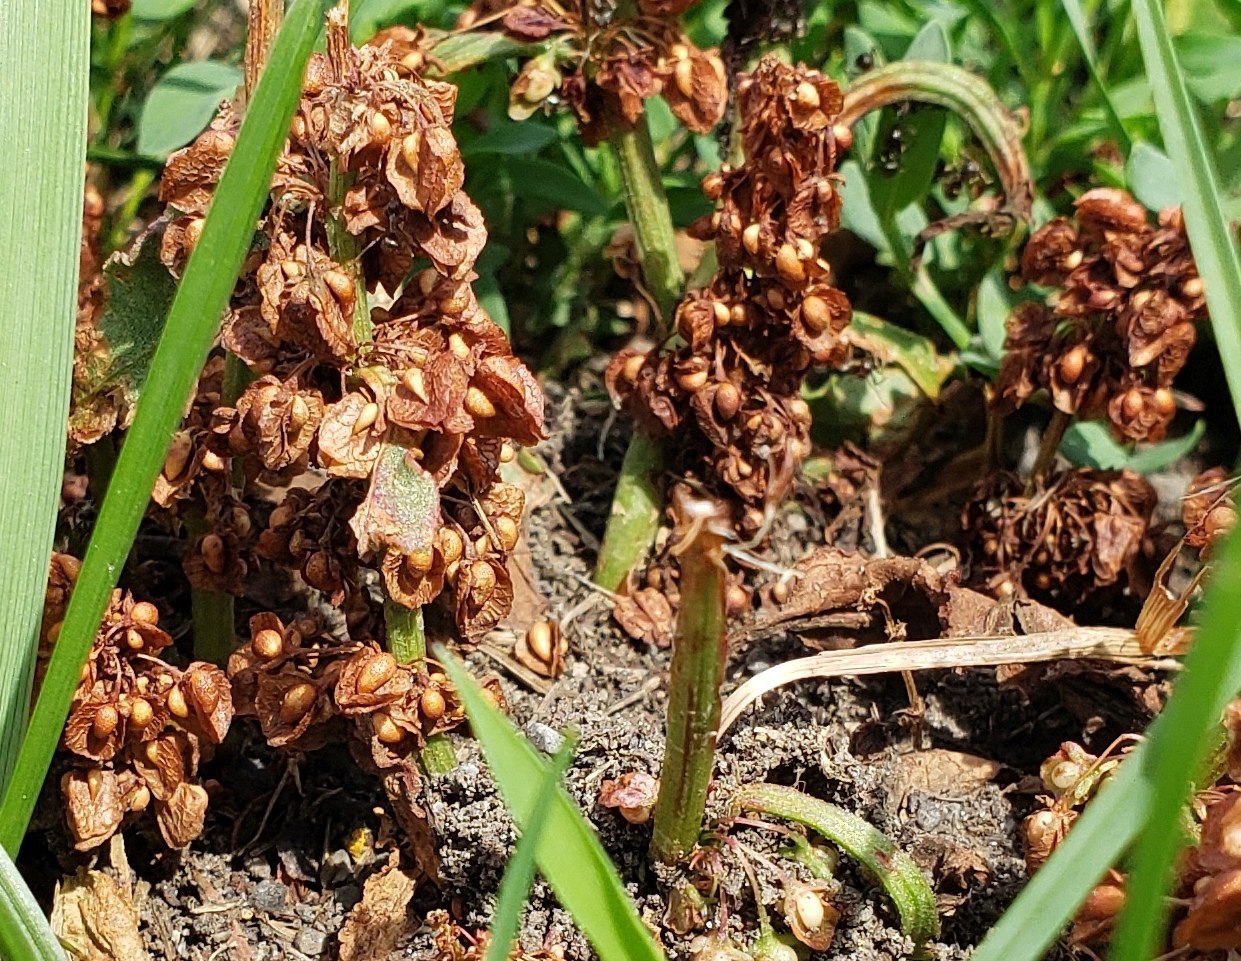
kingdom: Plantae
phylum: Tracheophyta
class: Magnoliopsida
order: Caryophyllales
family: Polygonaceae
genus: Rumex
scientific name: Rumex crispus
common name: Curled dock
